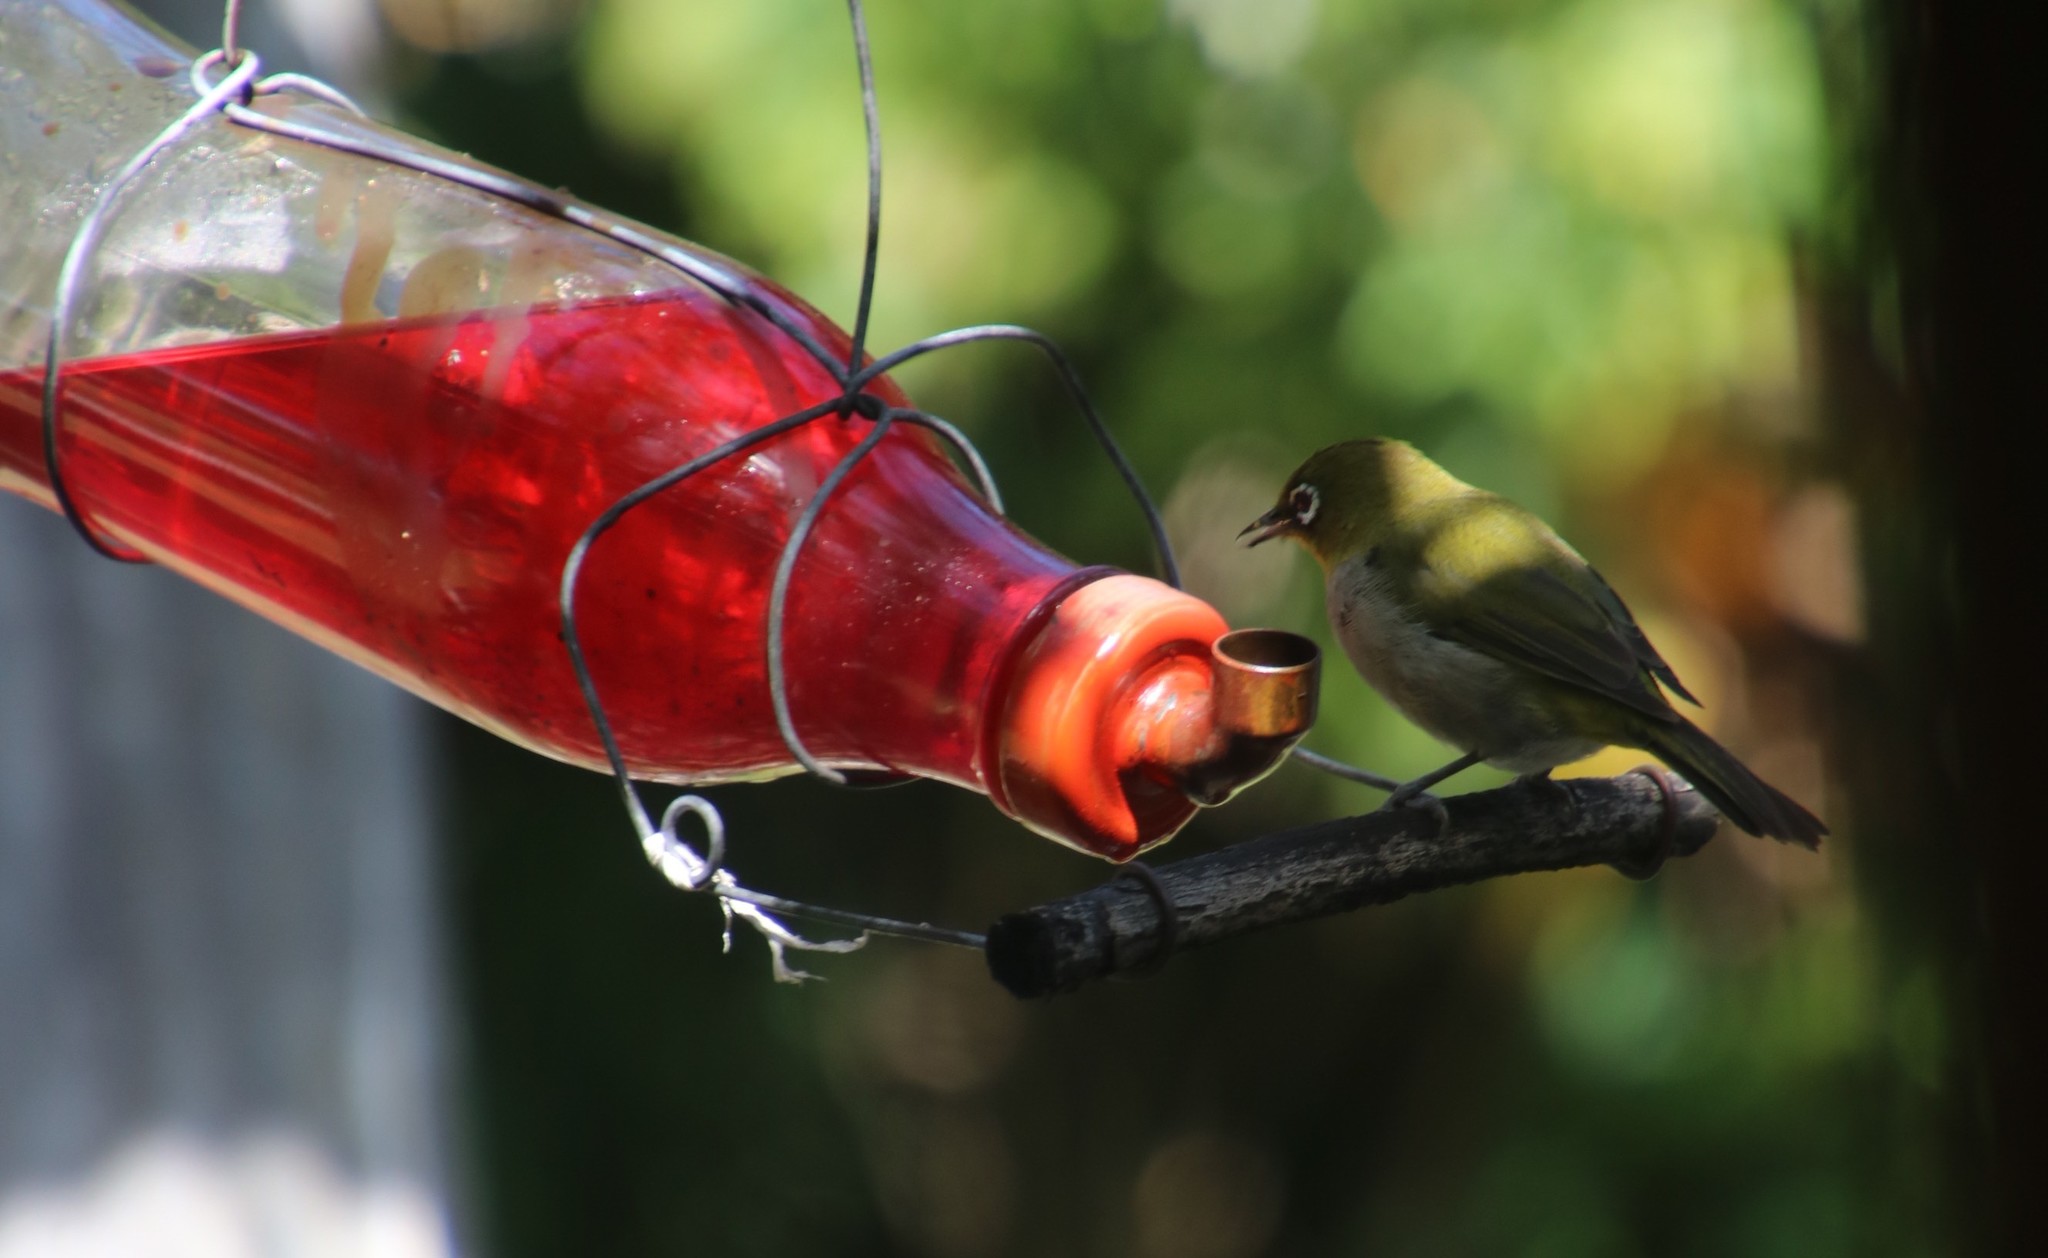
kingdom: Animalia
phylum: Chordata
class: Aves
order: Passeriformes
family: Zosteropidae
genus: Zosterops
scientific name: Zosterops virens
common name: Cape white-eye
